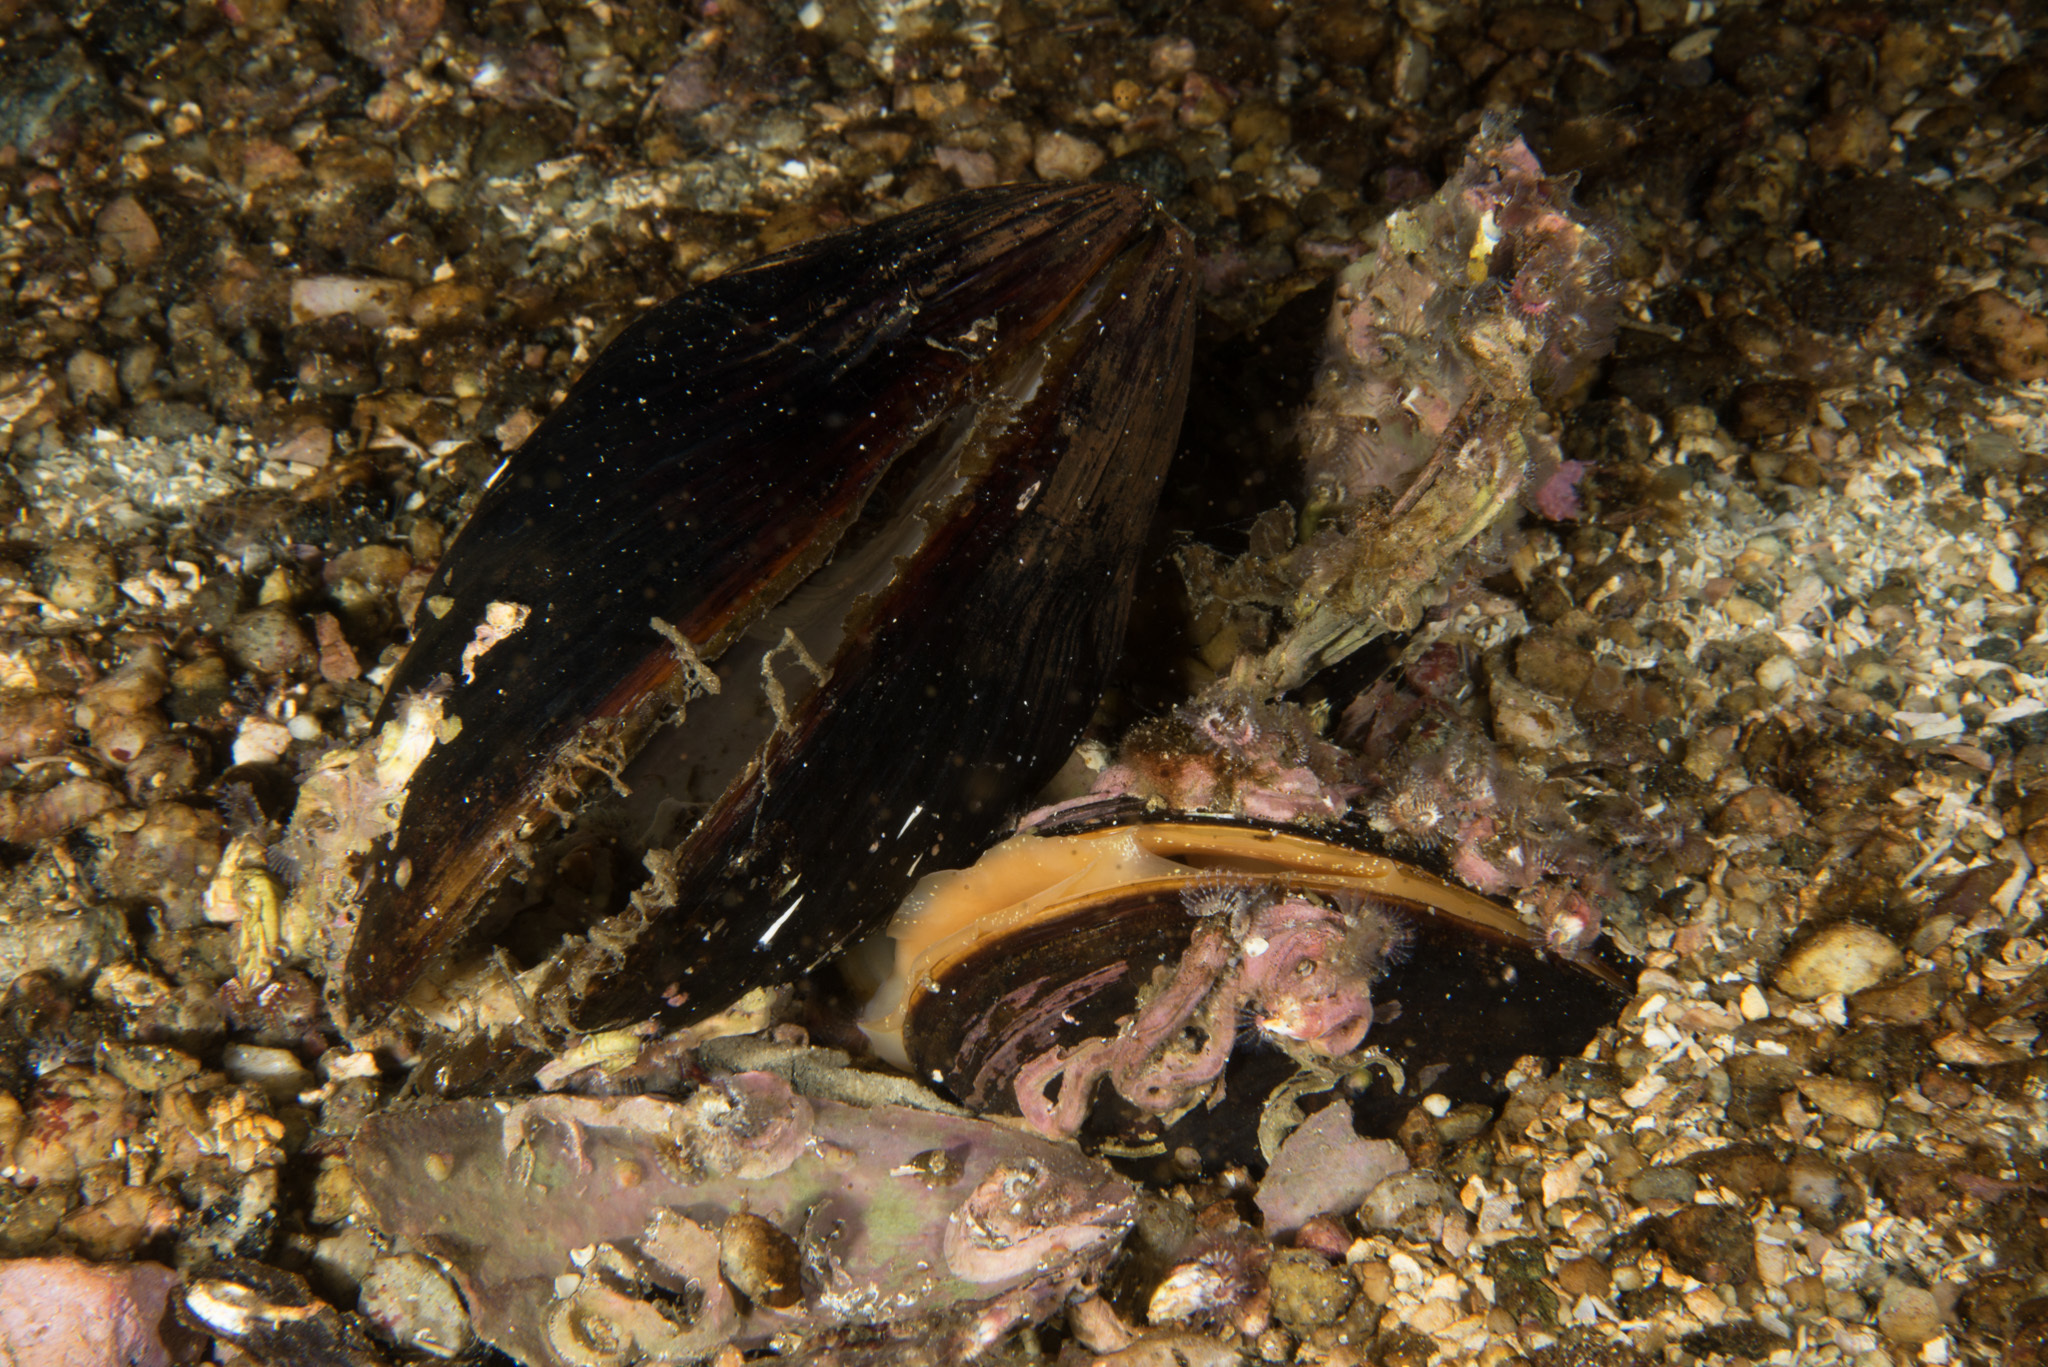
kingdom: Animalia
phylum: Mollusca
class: Bivalvia
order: Mytilida
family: Mytilidae
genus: Modiolus
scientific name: Modiolus modiolus
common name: Horse-mussel
